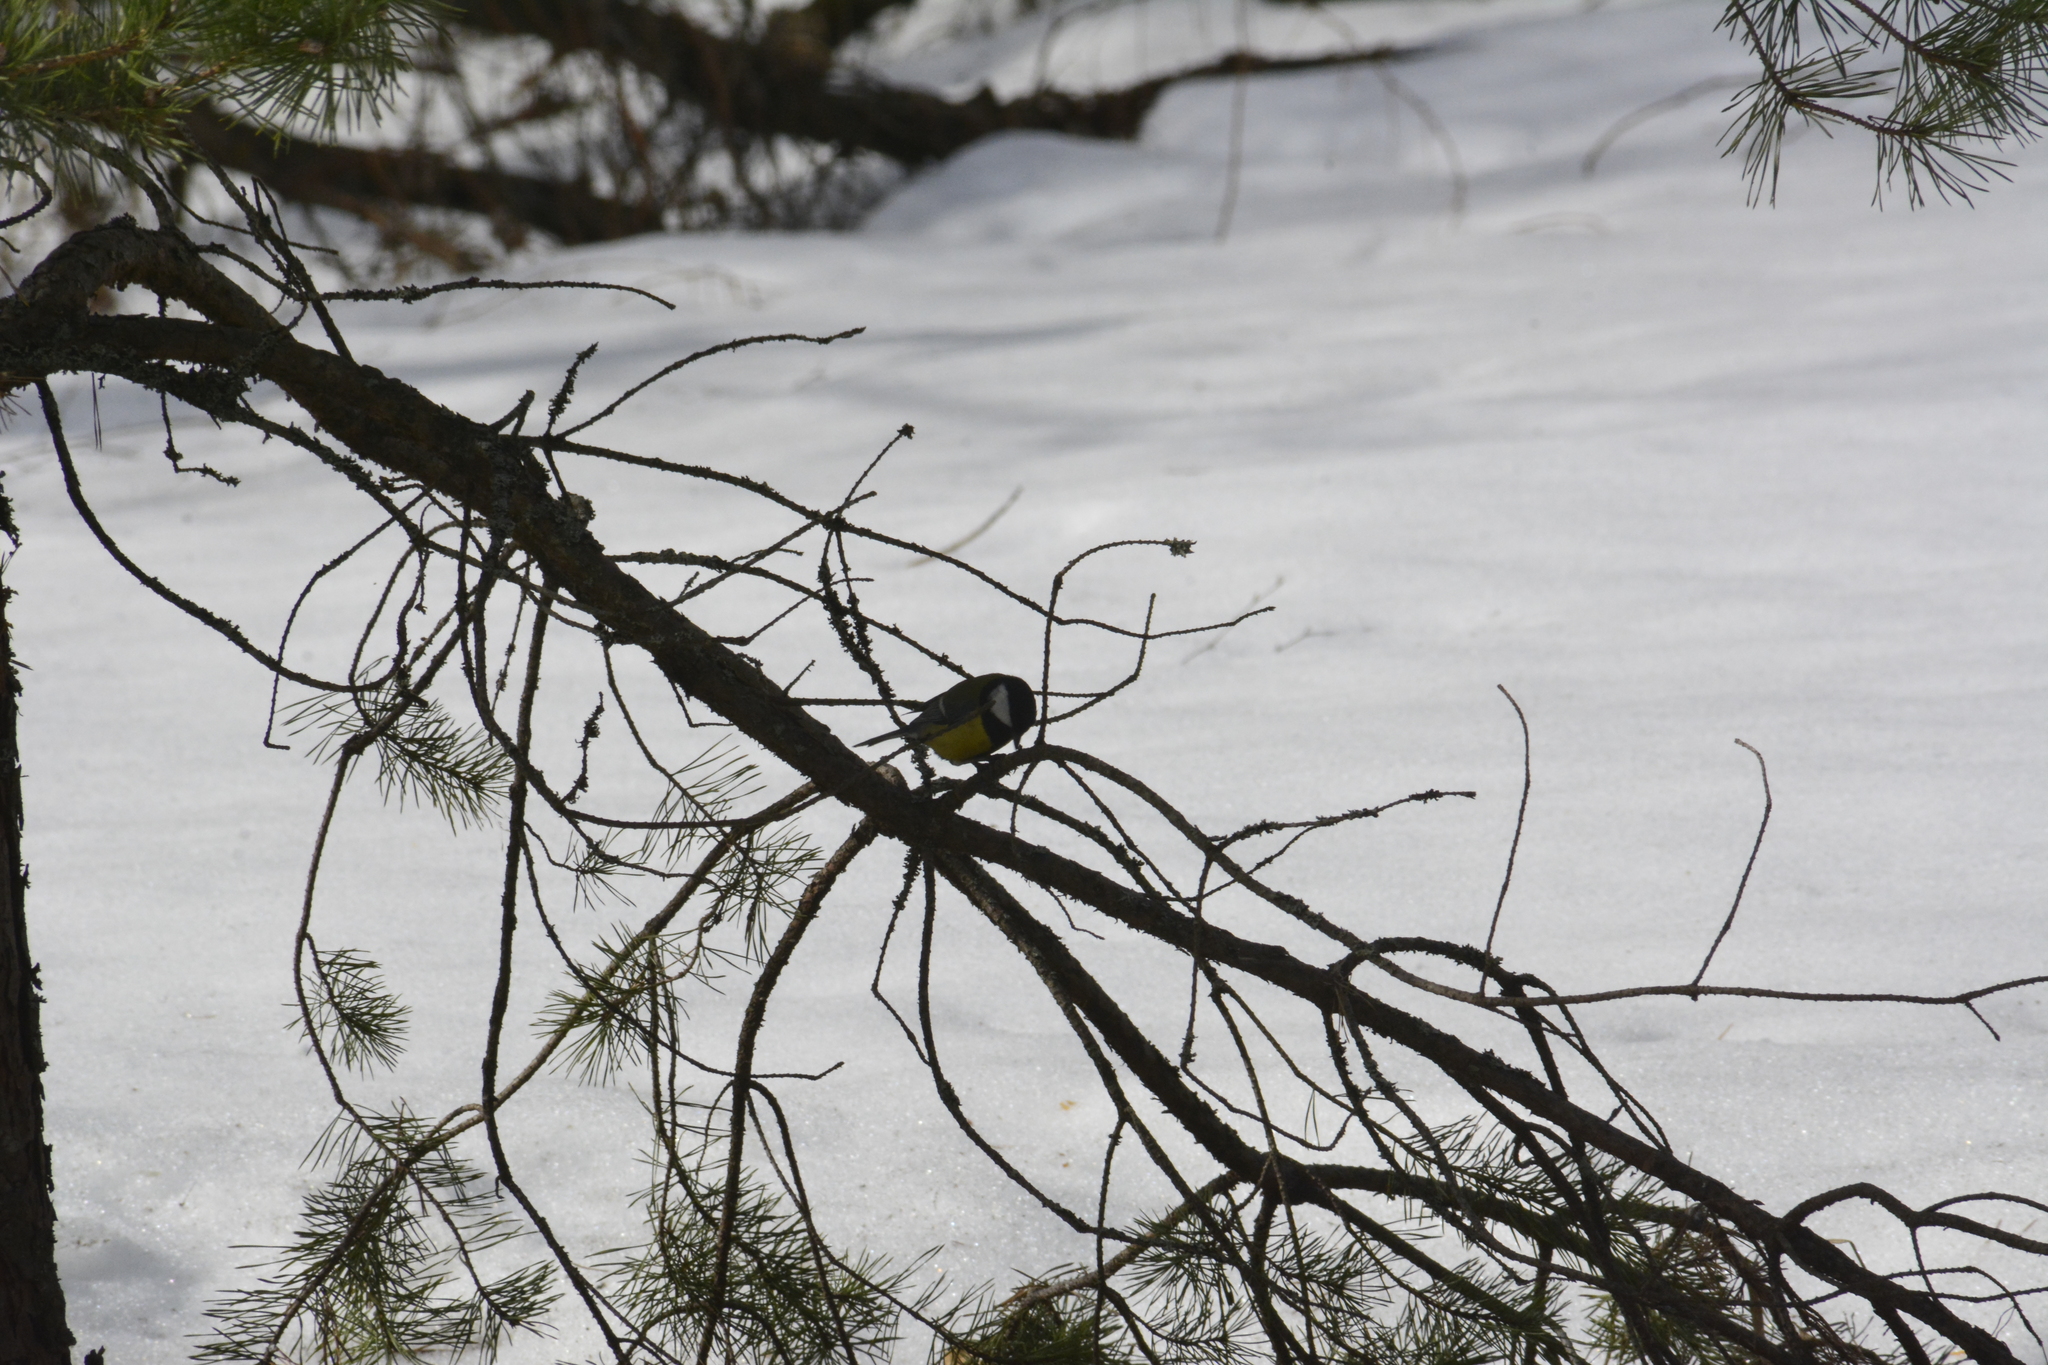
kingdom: Animalia
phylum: Chordata
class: Aves
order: Passeriformes
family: Paridae
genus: Parus
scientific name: Parus major
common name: Great tit
